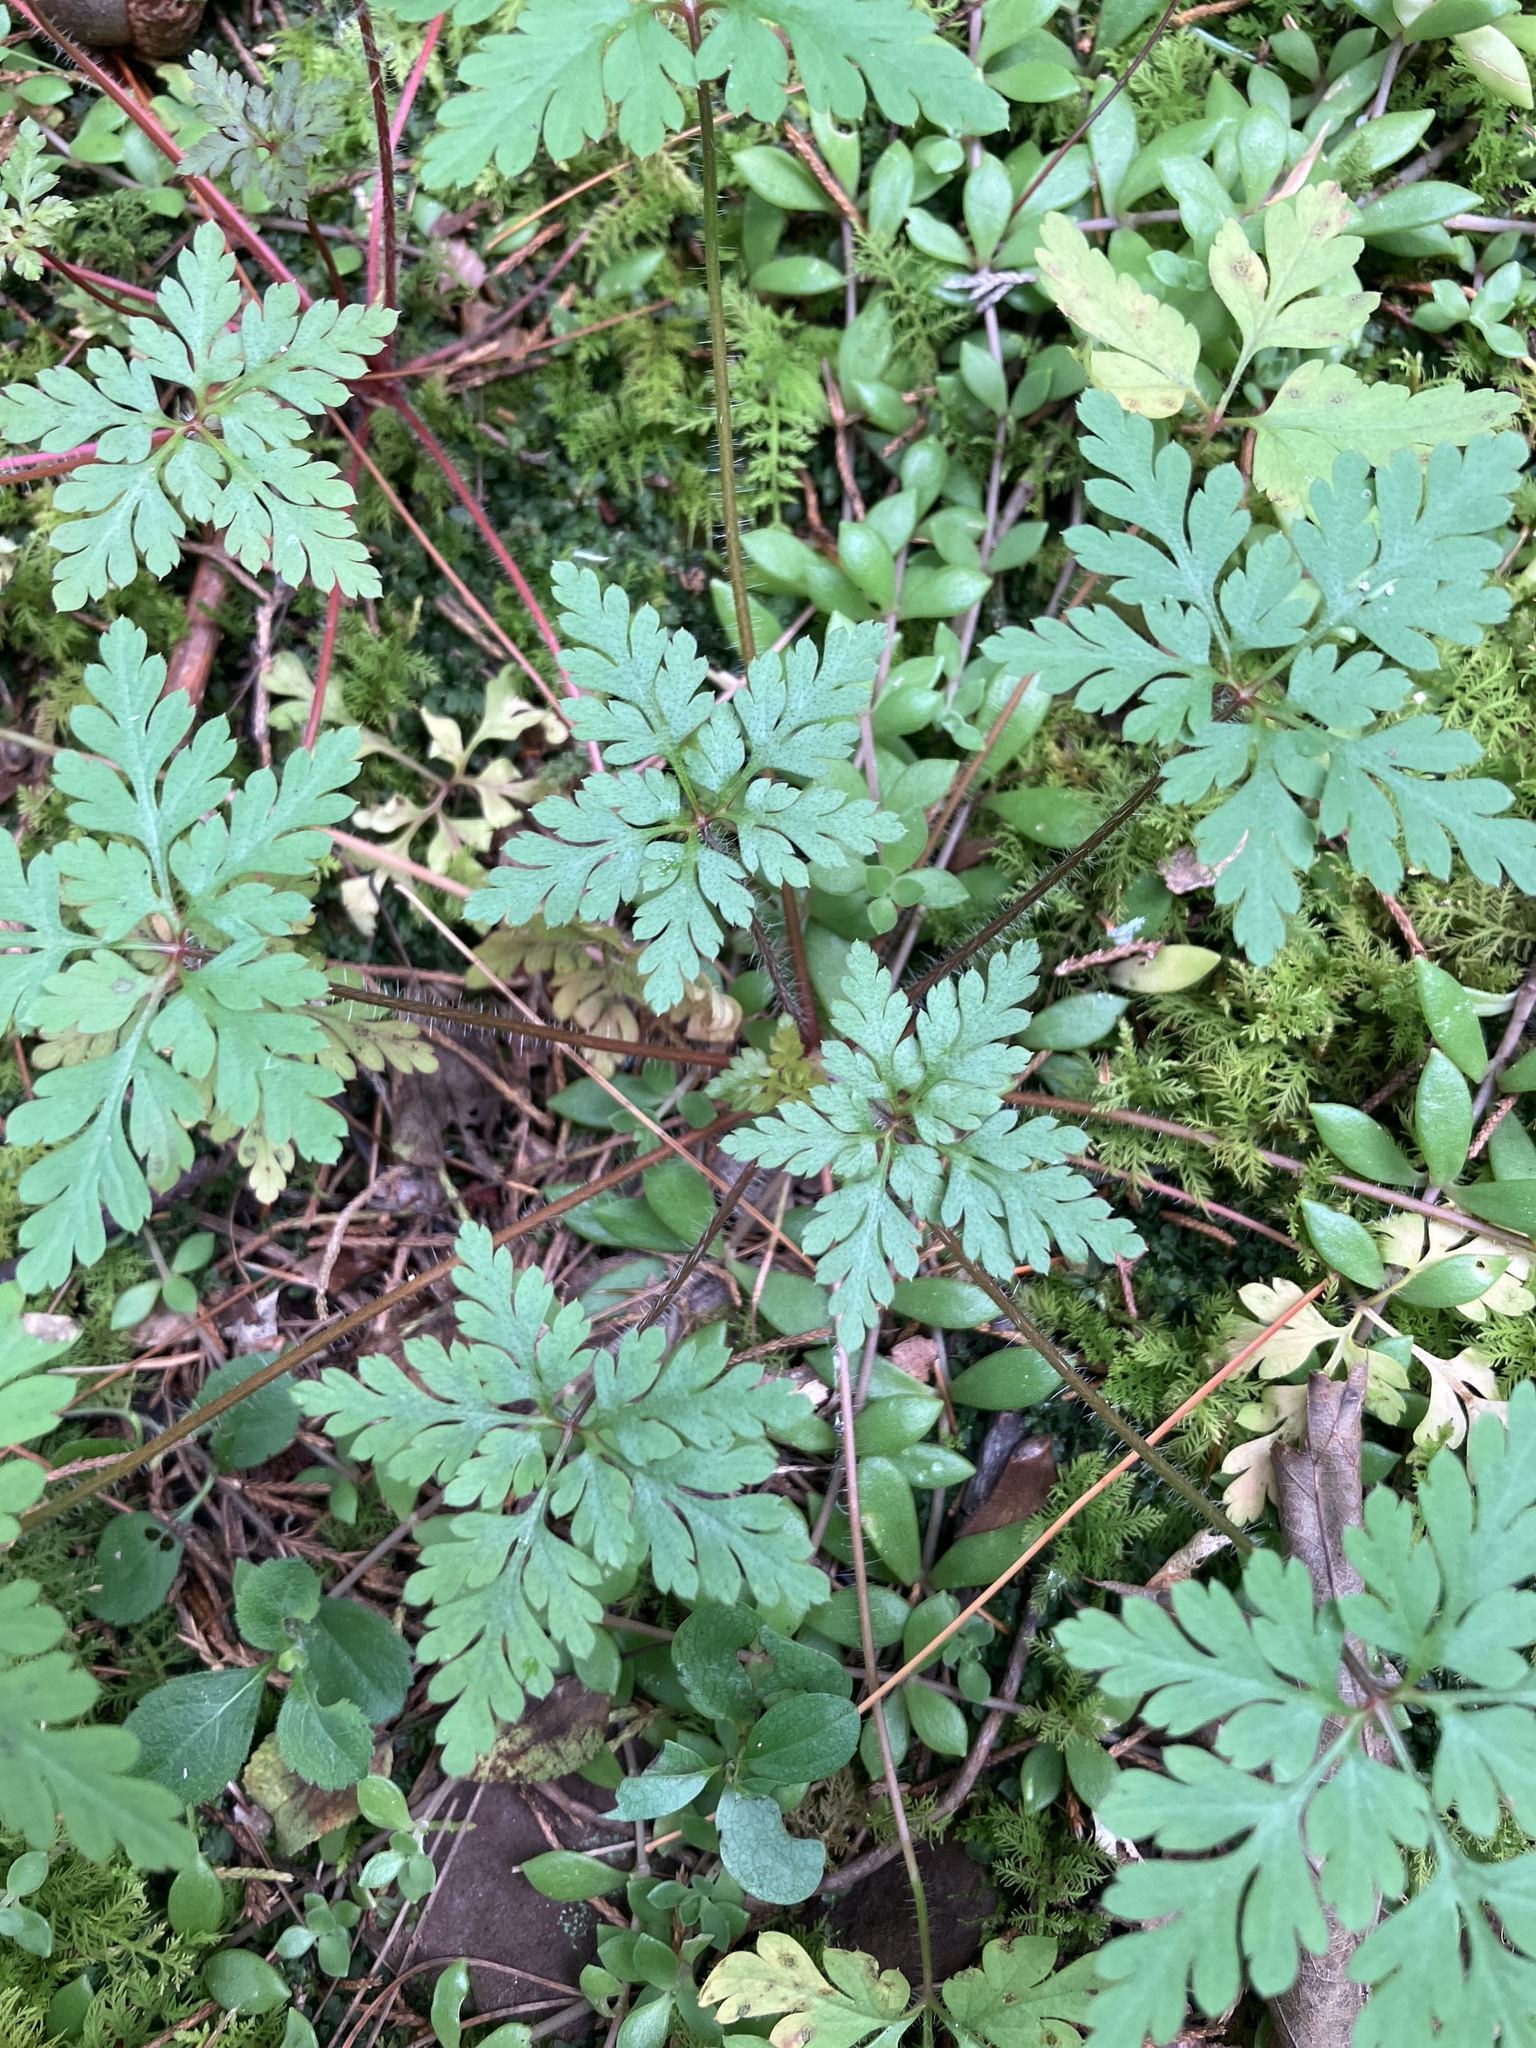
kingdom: Plantae
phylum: Tracheophyta
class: Magnoliopsida
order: Geraniales
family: Geraniaceae
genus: Geranium
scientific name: Geranium robertianum
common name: Herb-robert
